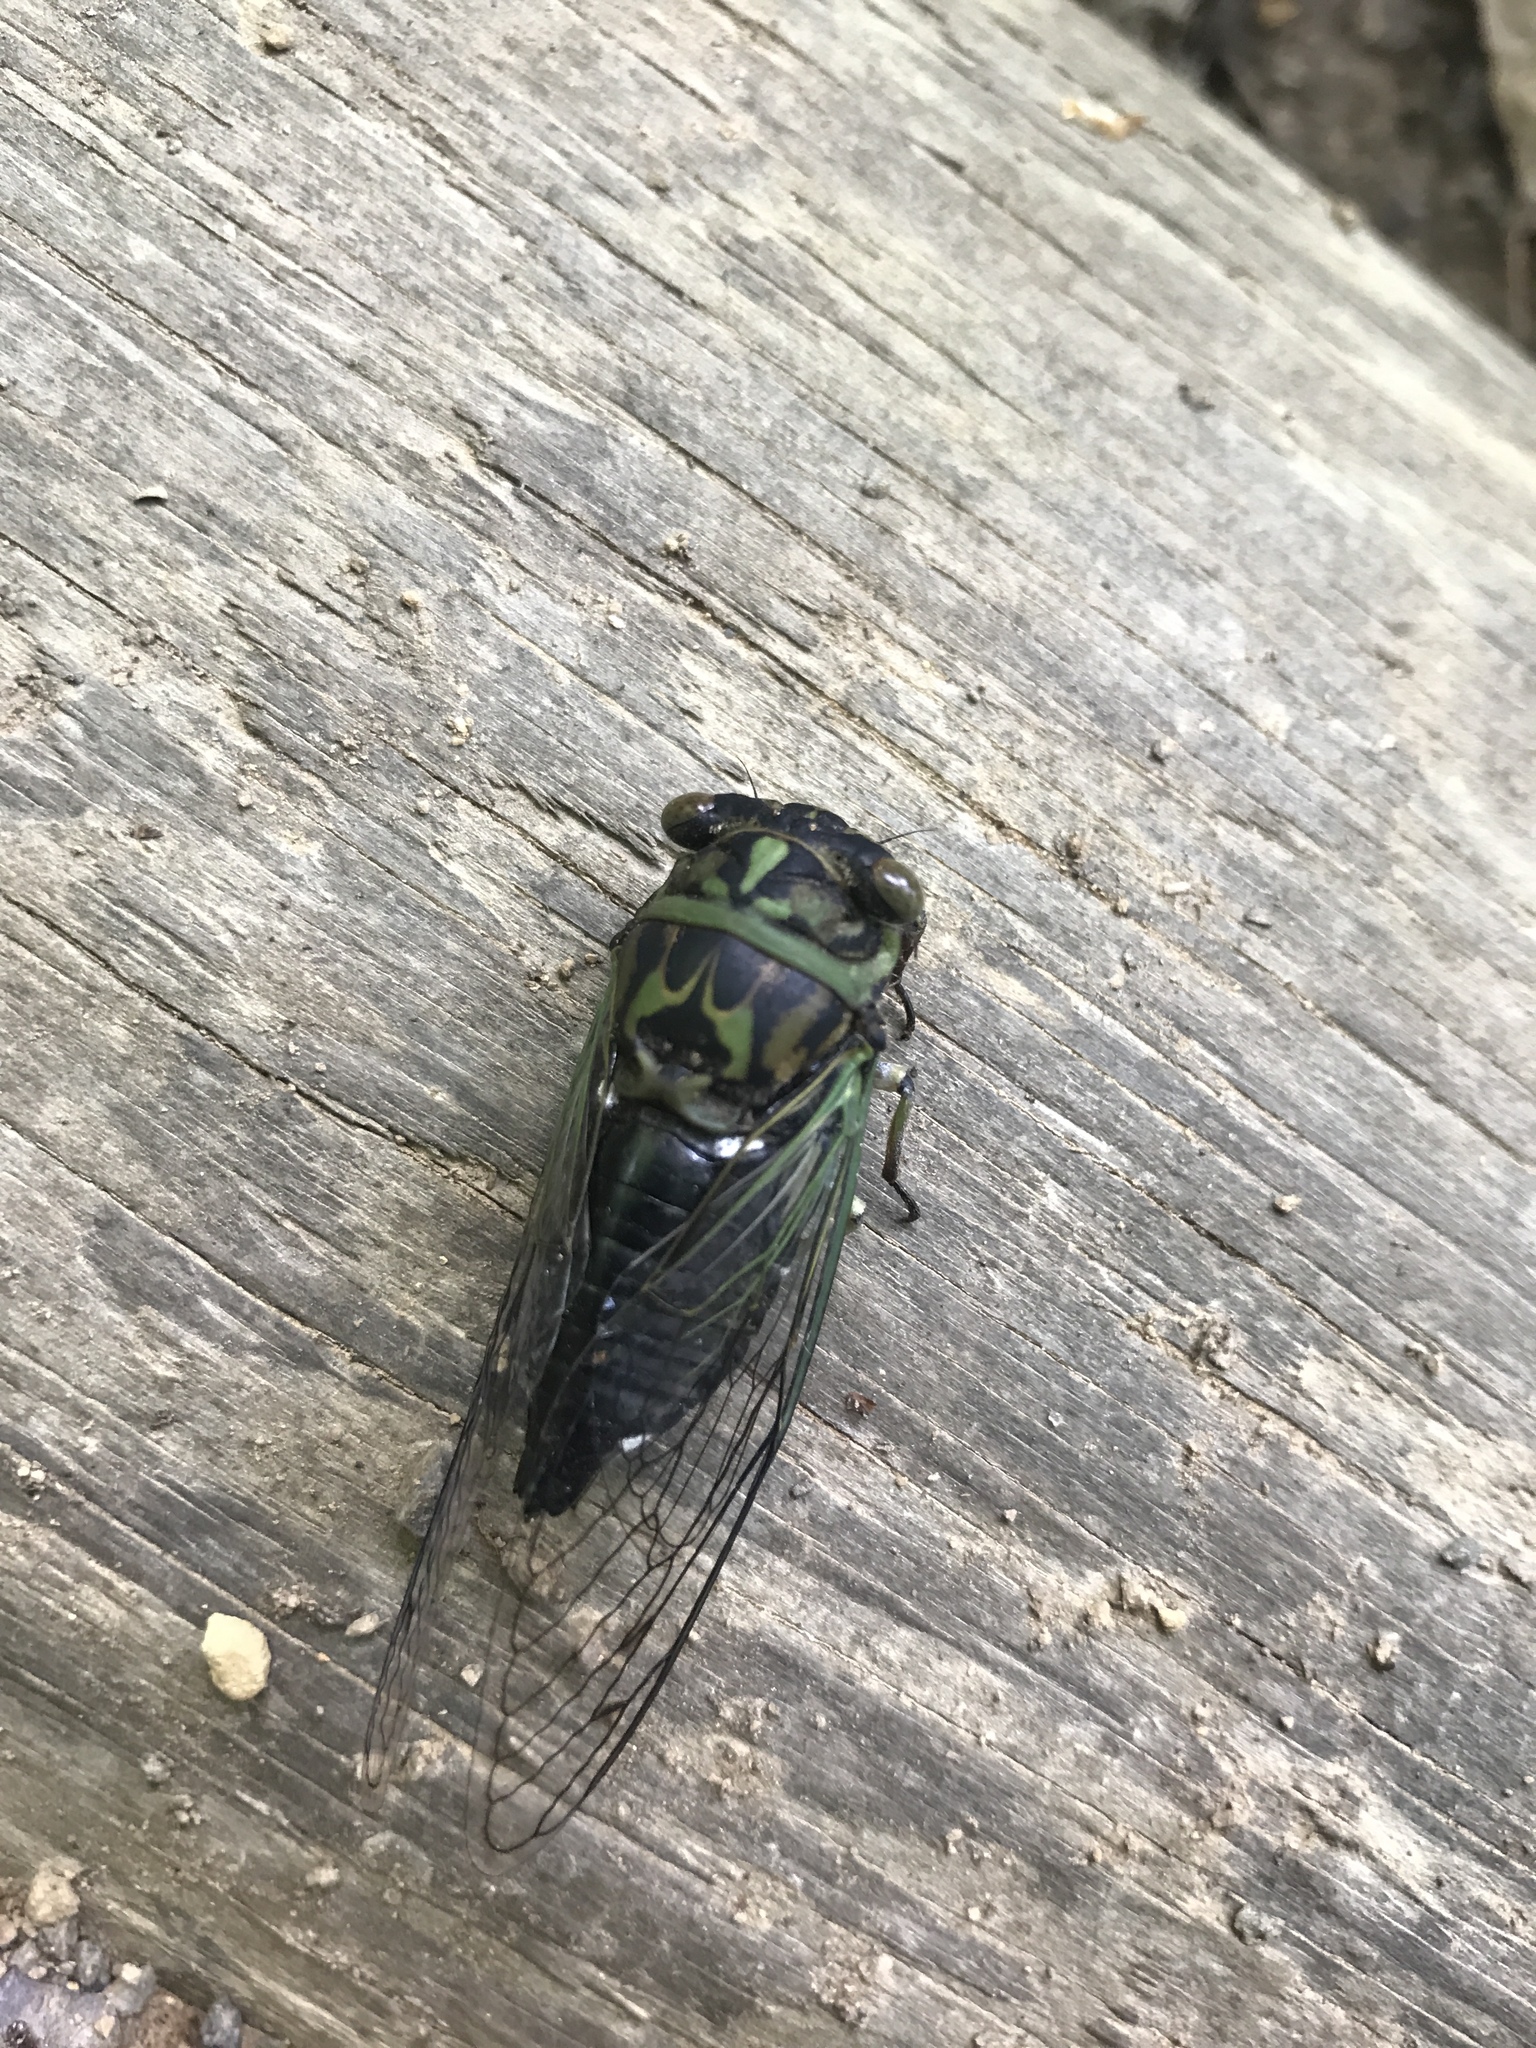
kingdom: Animalia
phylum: Arthropoda
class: Insecta
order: Hemiptera
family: Cicadidae
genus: Neotibicen
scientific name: Neotibicen linnei
